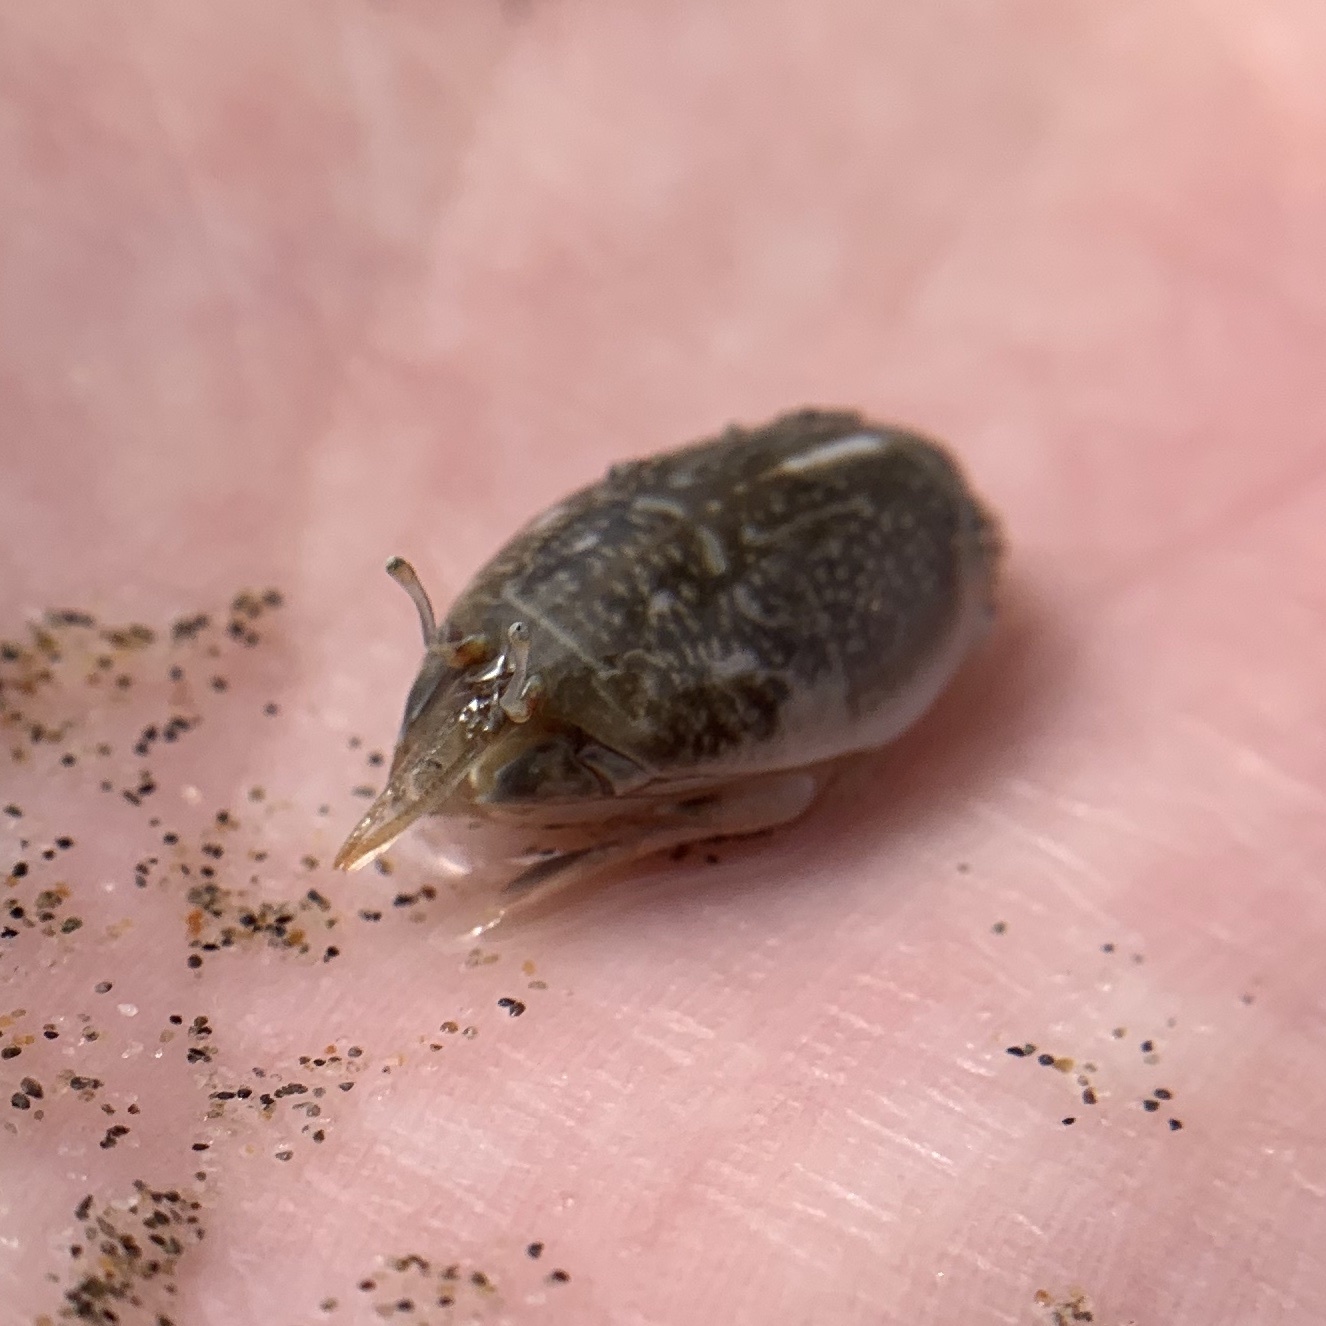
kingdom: Animalia
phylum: Arthropoda
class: Malacostraca
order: Decapoda
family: Hippidae
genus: Emerita
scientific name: Emerita analoga
